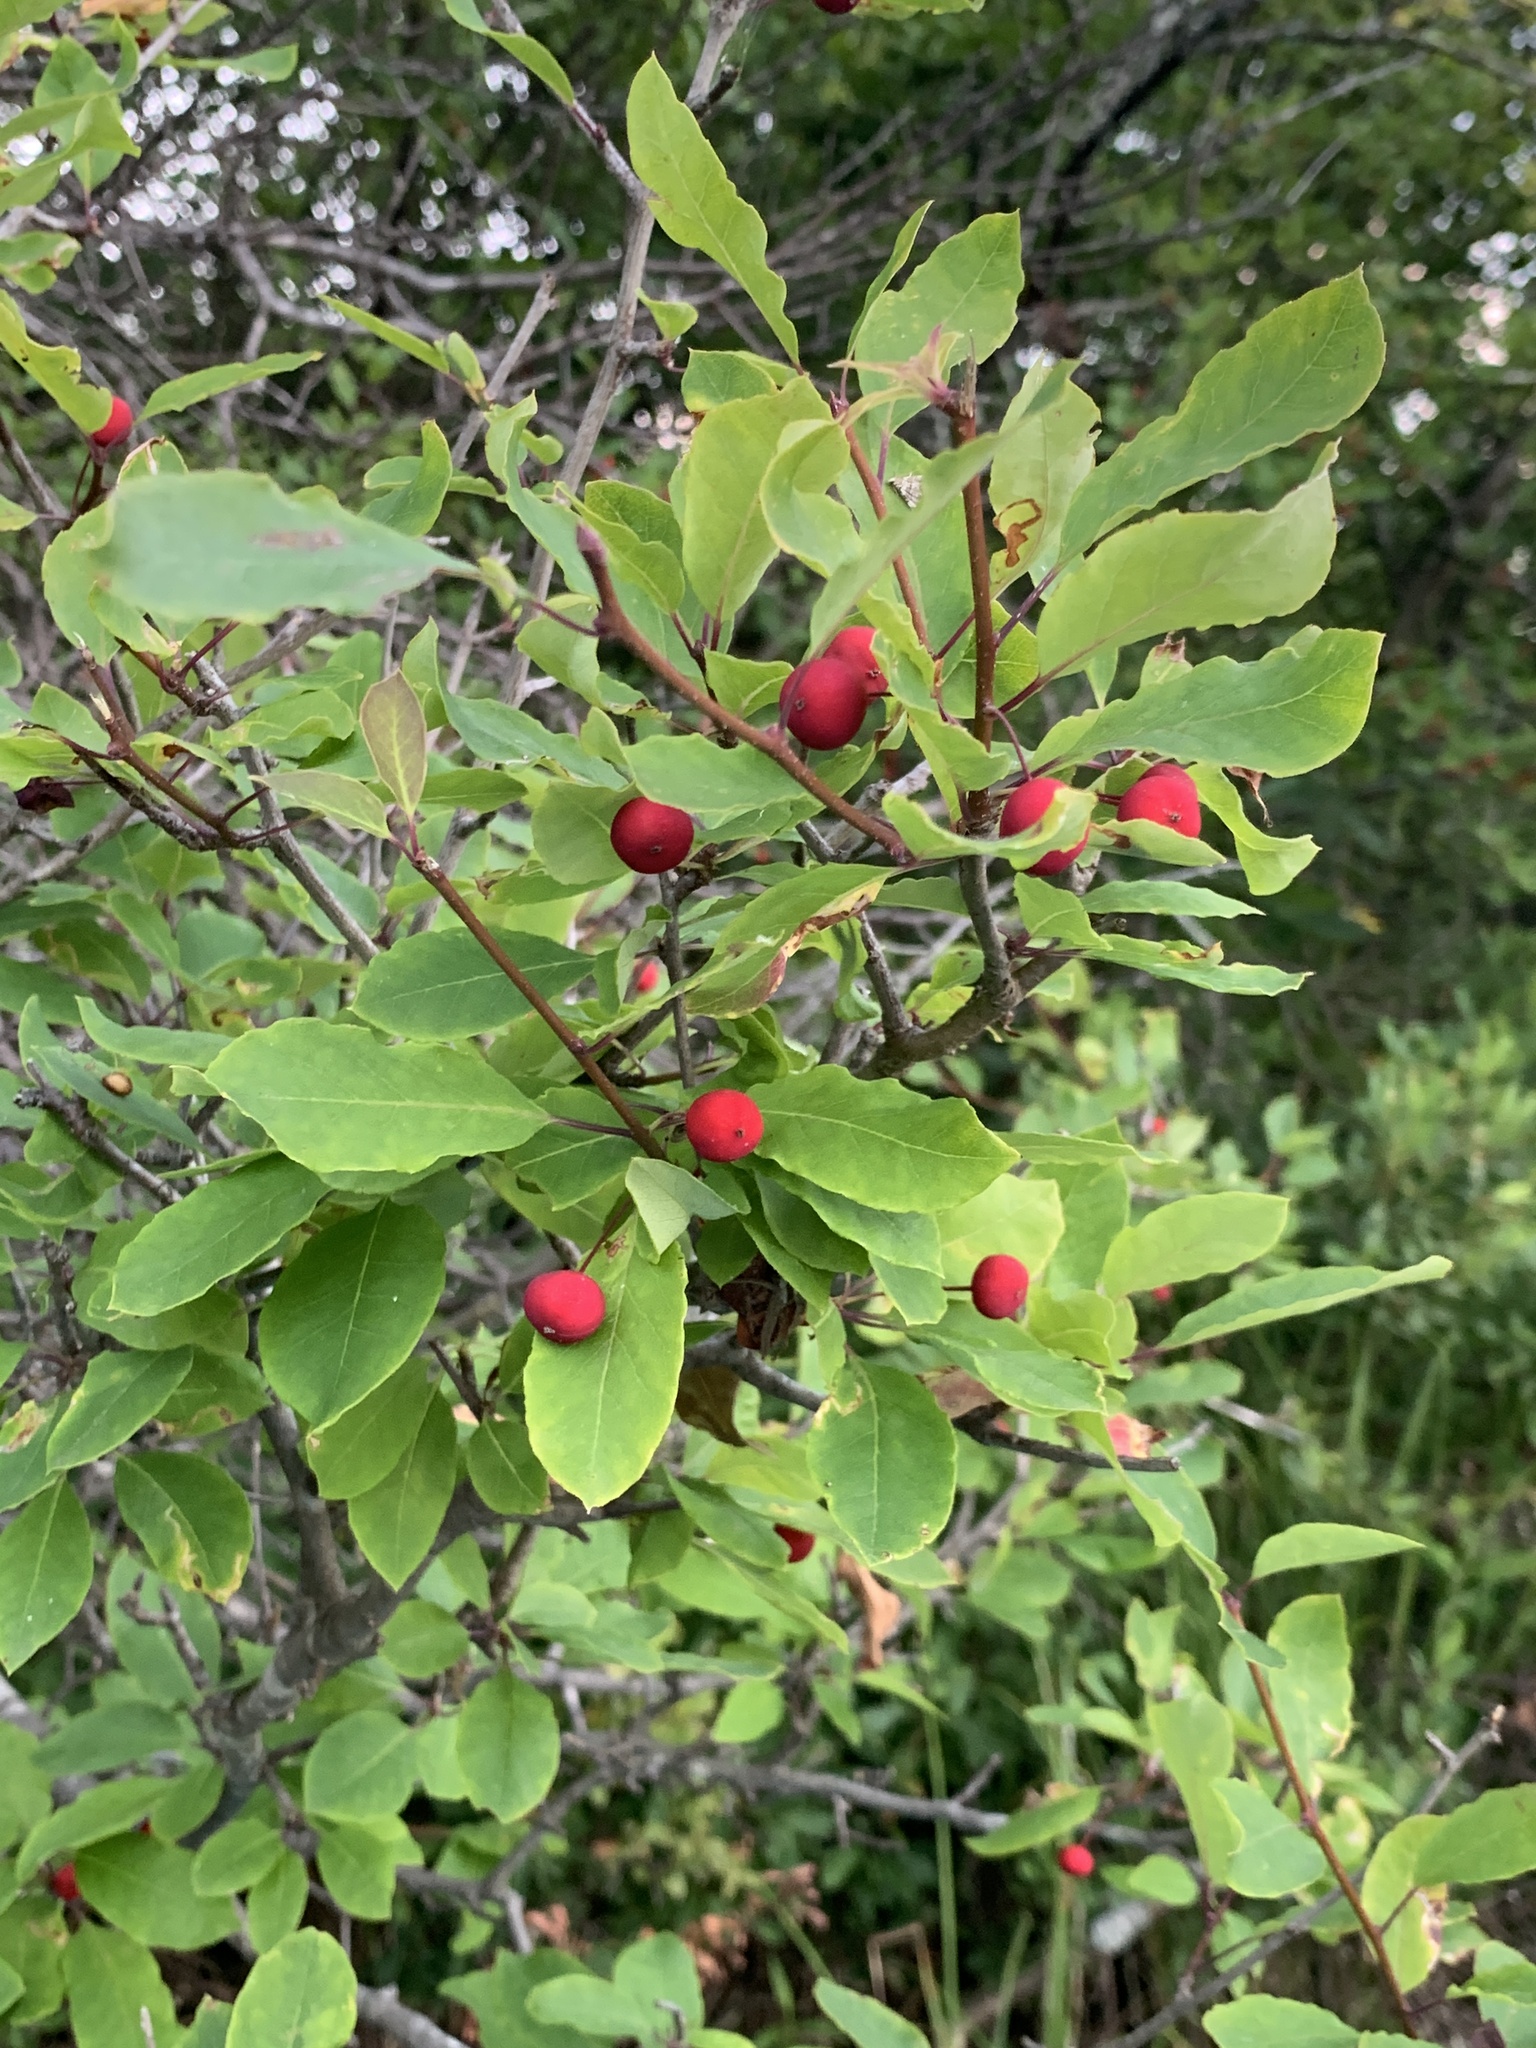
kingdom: Plantae
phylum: Tracheophyta
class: Magnoliopsida
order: Aquifoliales
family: Aquifoliaceae
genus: Ilex
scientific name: Ilex mucronata
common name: Catberry
